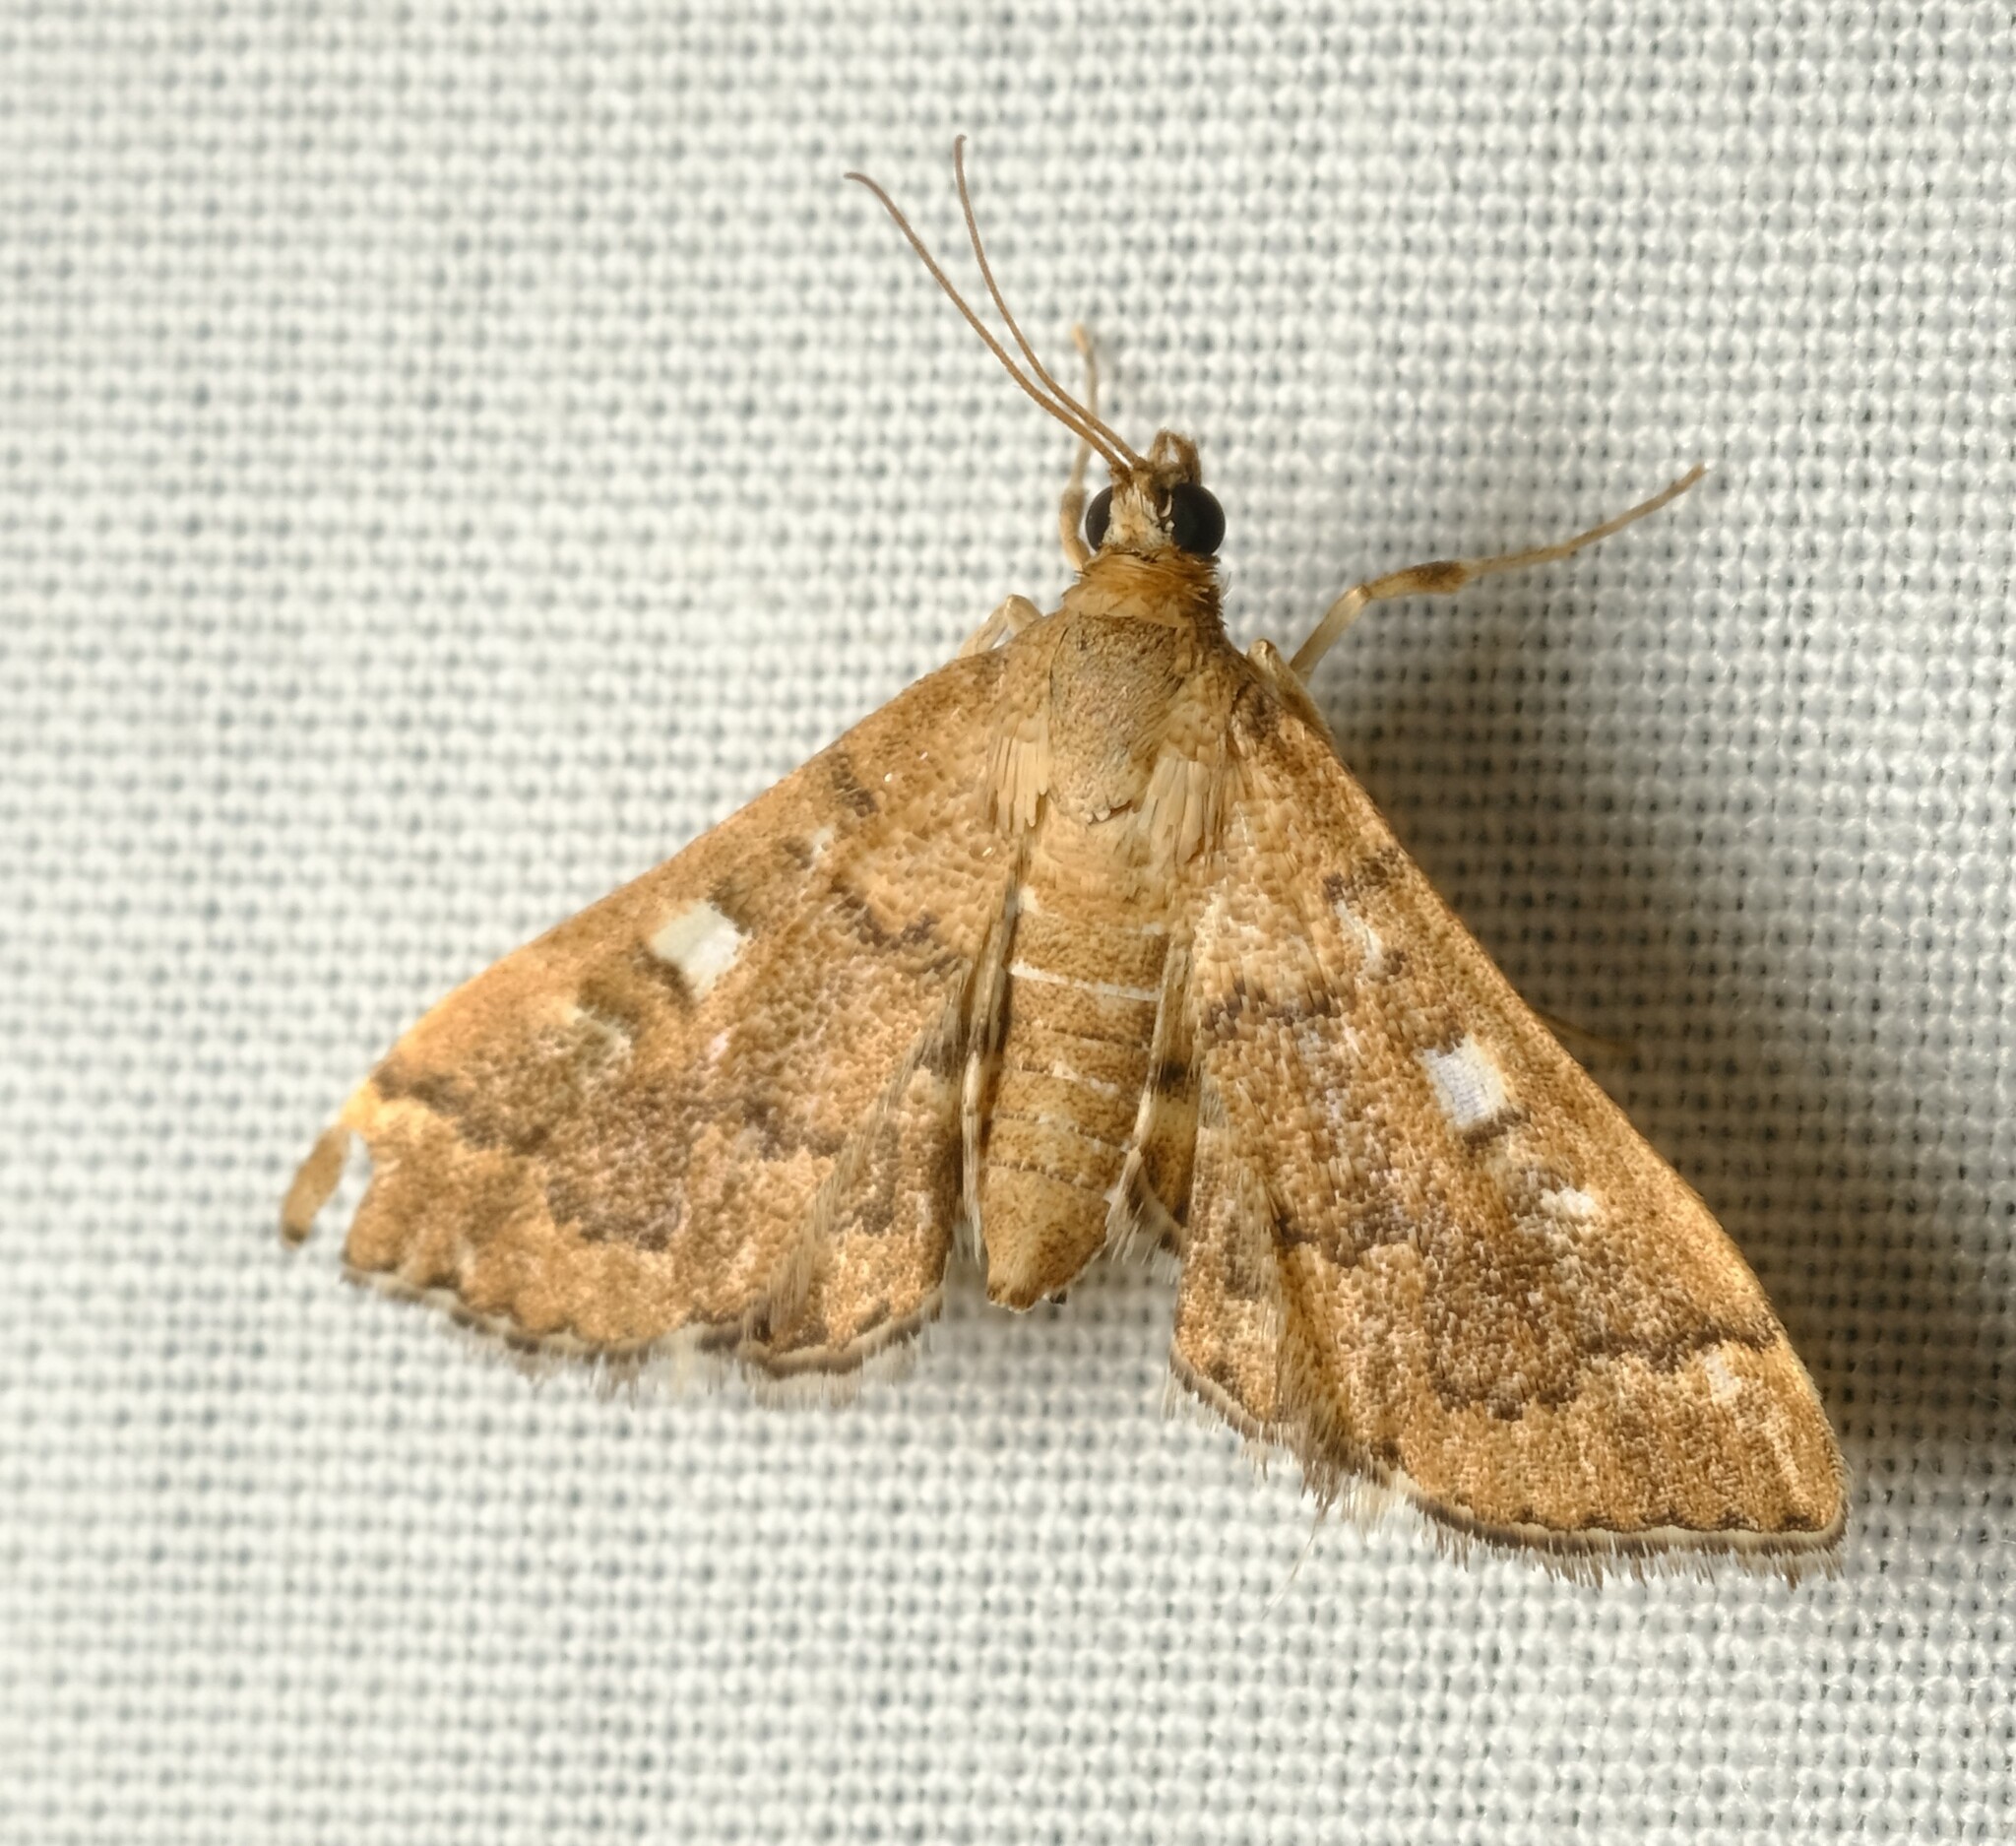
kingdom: Animalia
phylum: Arthropoda
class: Insecta
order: Lepidoptera
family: Crambidae
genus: Nacoleia
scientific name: Nacoleia rhoeoalis
